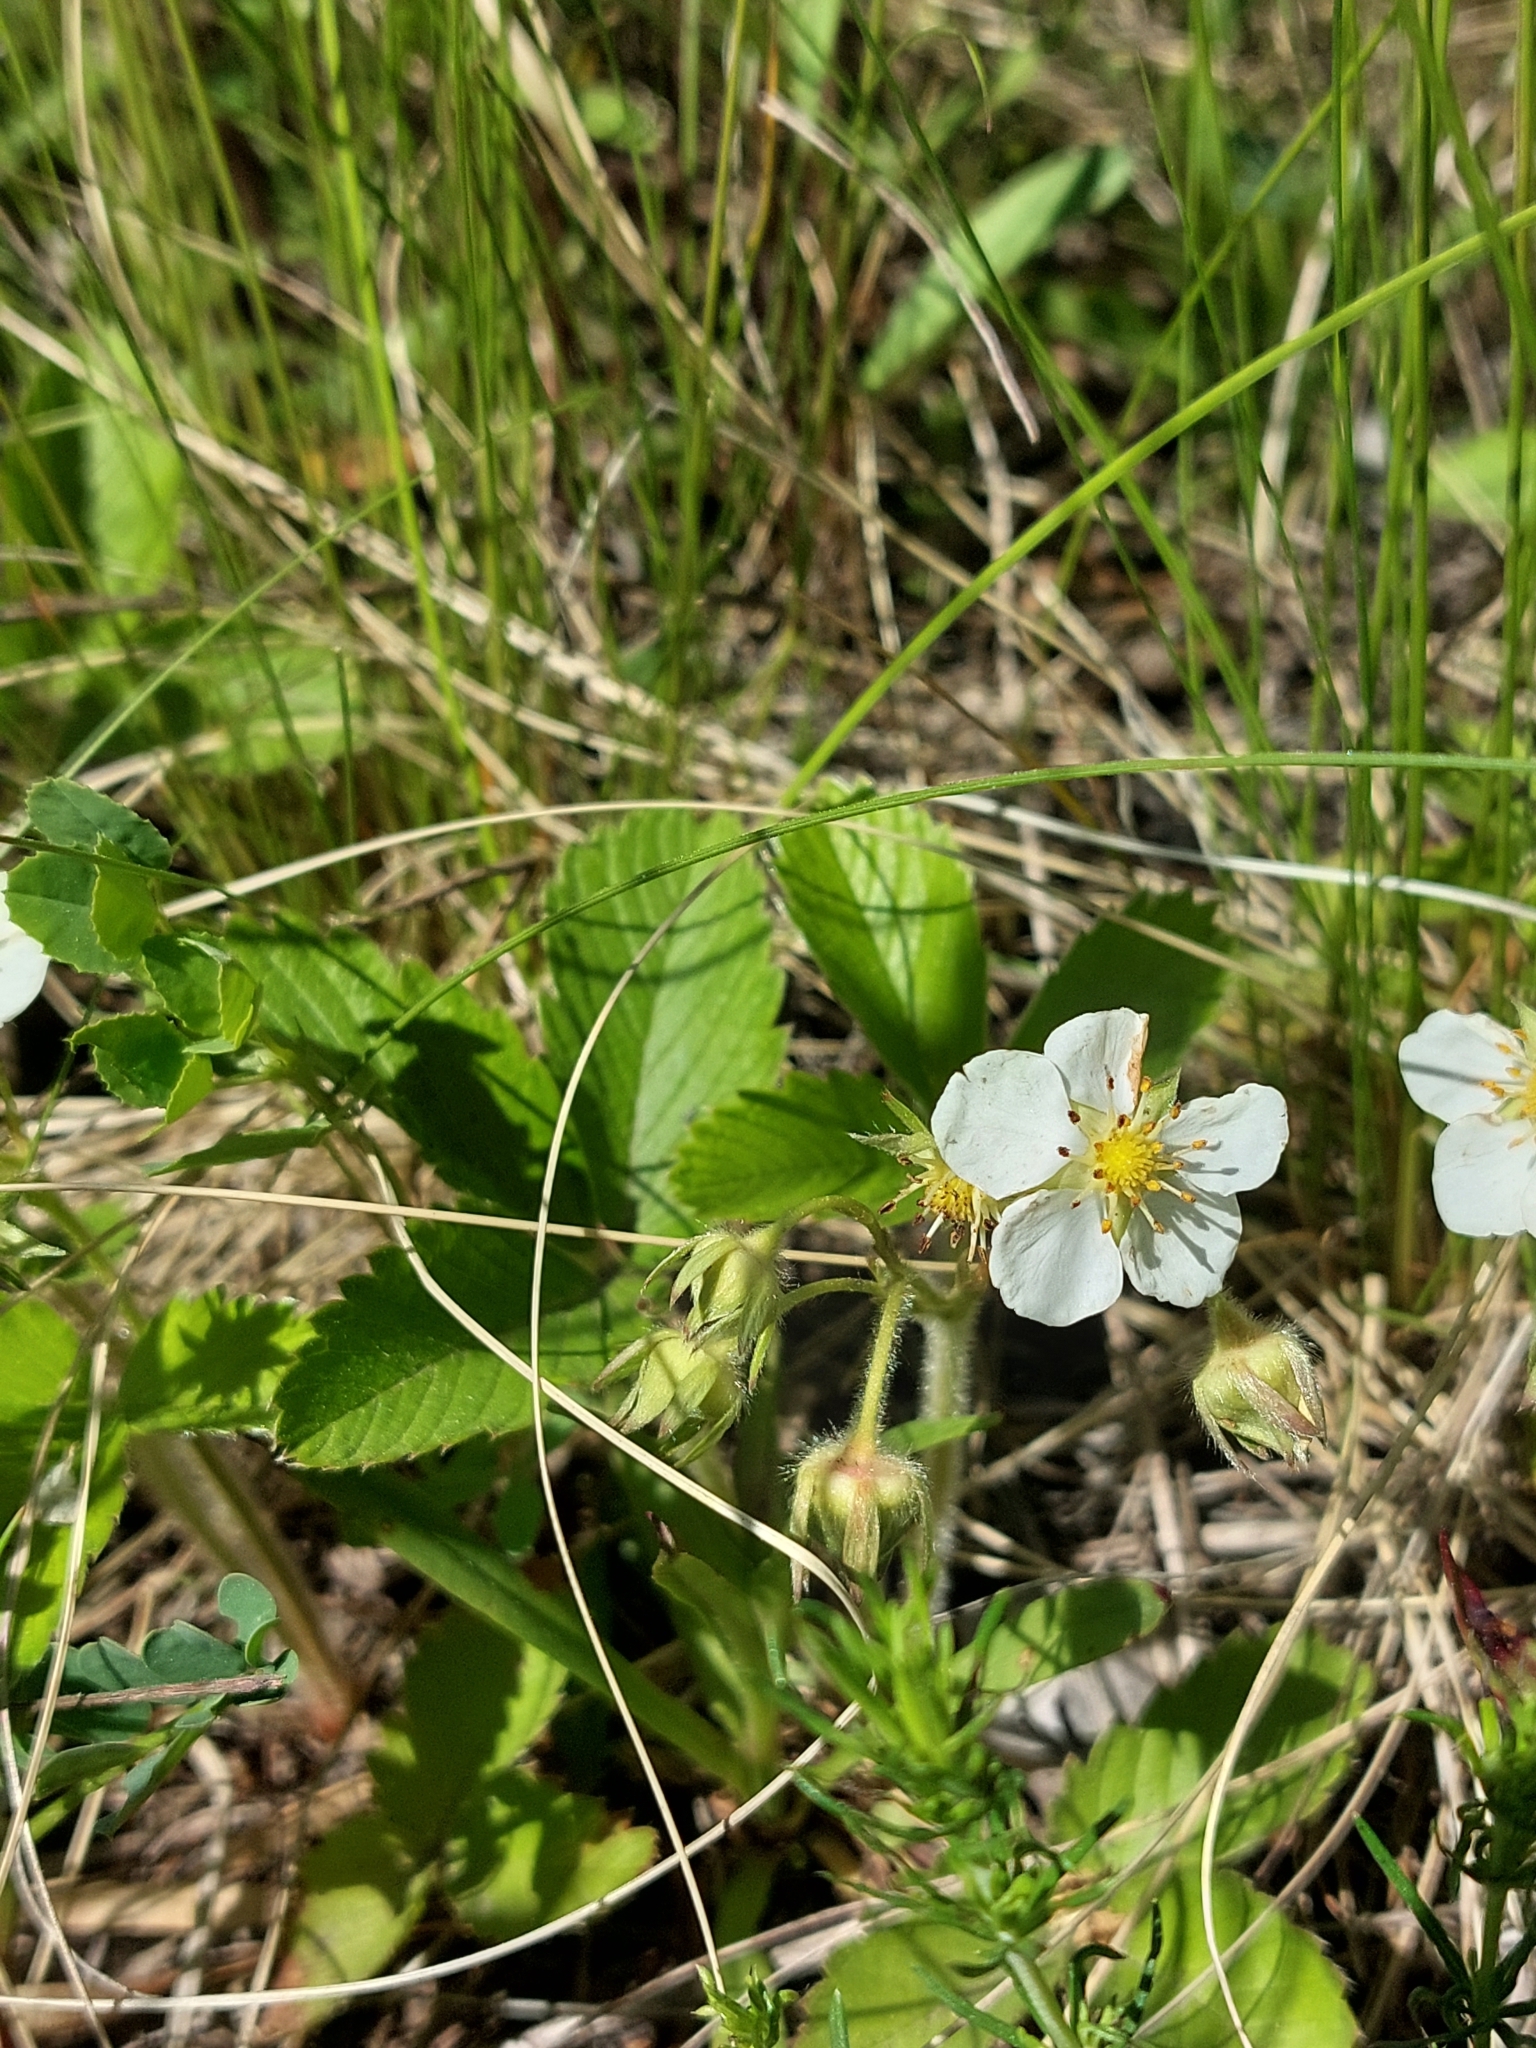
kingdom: Plantae
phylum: Tracheophyta
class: Magnoliopsida
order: Rosales
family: Rosaceae
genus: Fragaria
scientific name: Fragaria viridis
